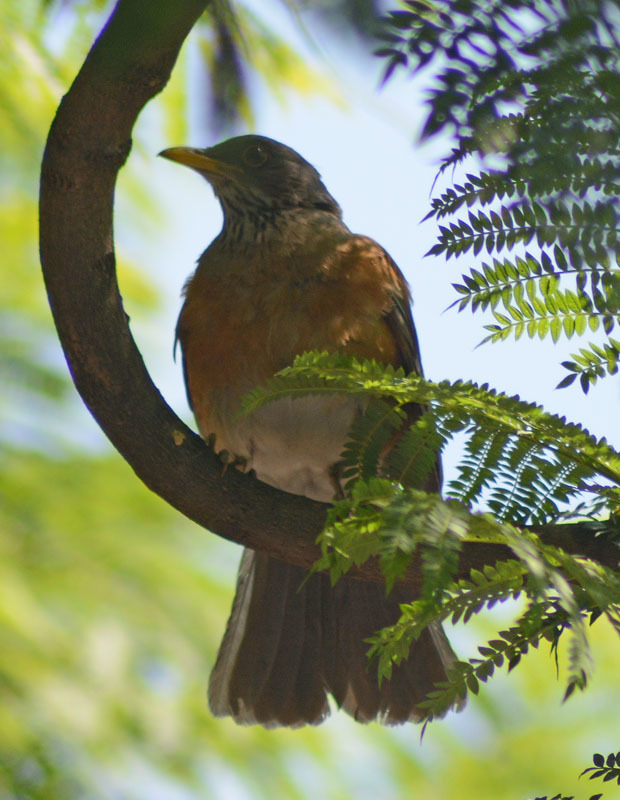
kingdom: Animalia
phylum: Chordata
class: Aves
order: Passeriformes
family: Turdidae
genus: Turdus
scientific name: Turdus rufopalliatus
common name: Rufous-backed robin
